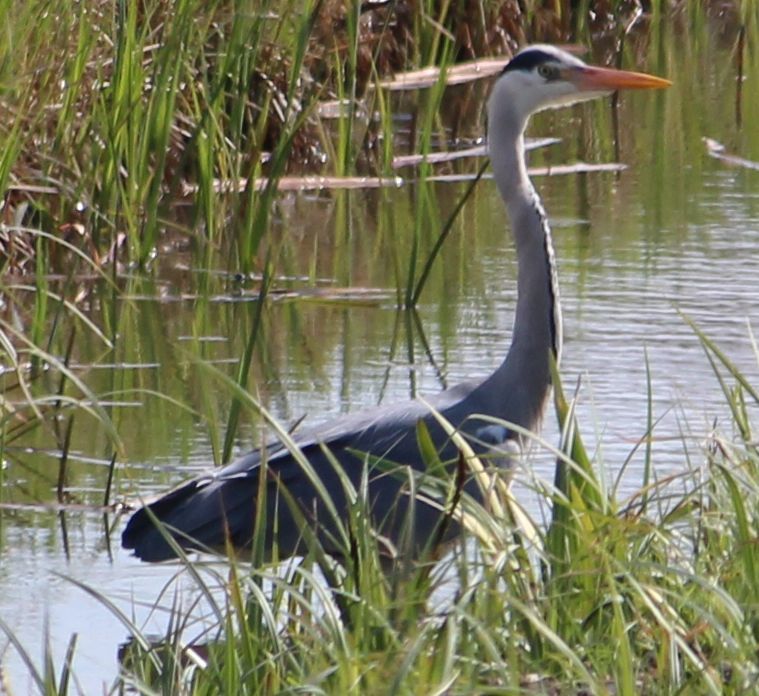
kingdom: Animalia
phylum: Chordata
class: Aves
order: Pelecaniformes
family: Ardeidae
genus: Ardea
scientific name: Ardea cinerea
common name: Grey heron
